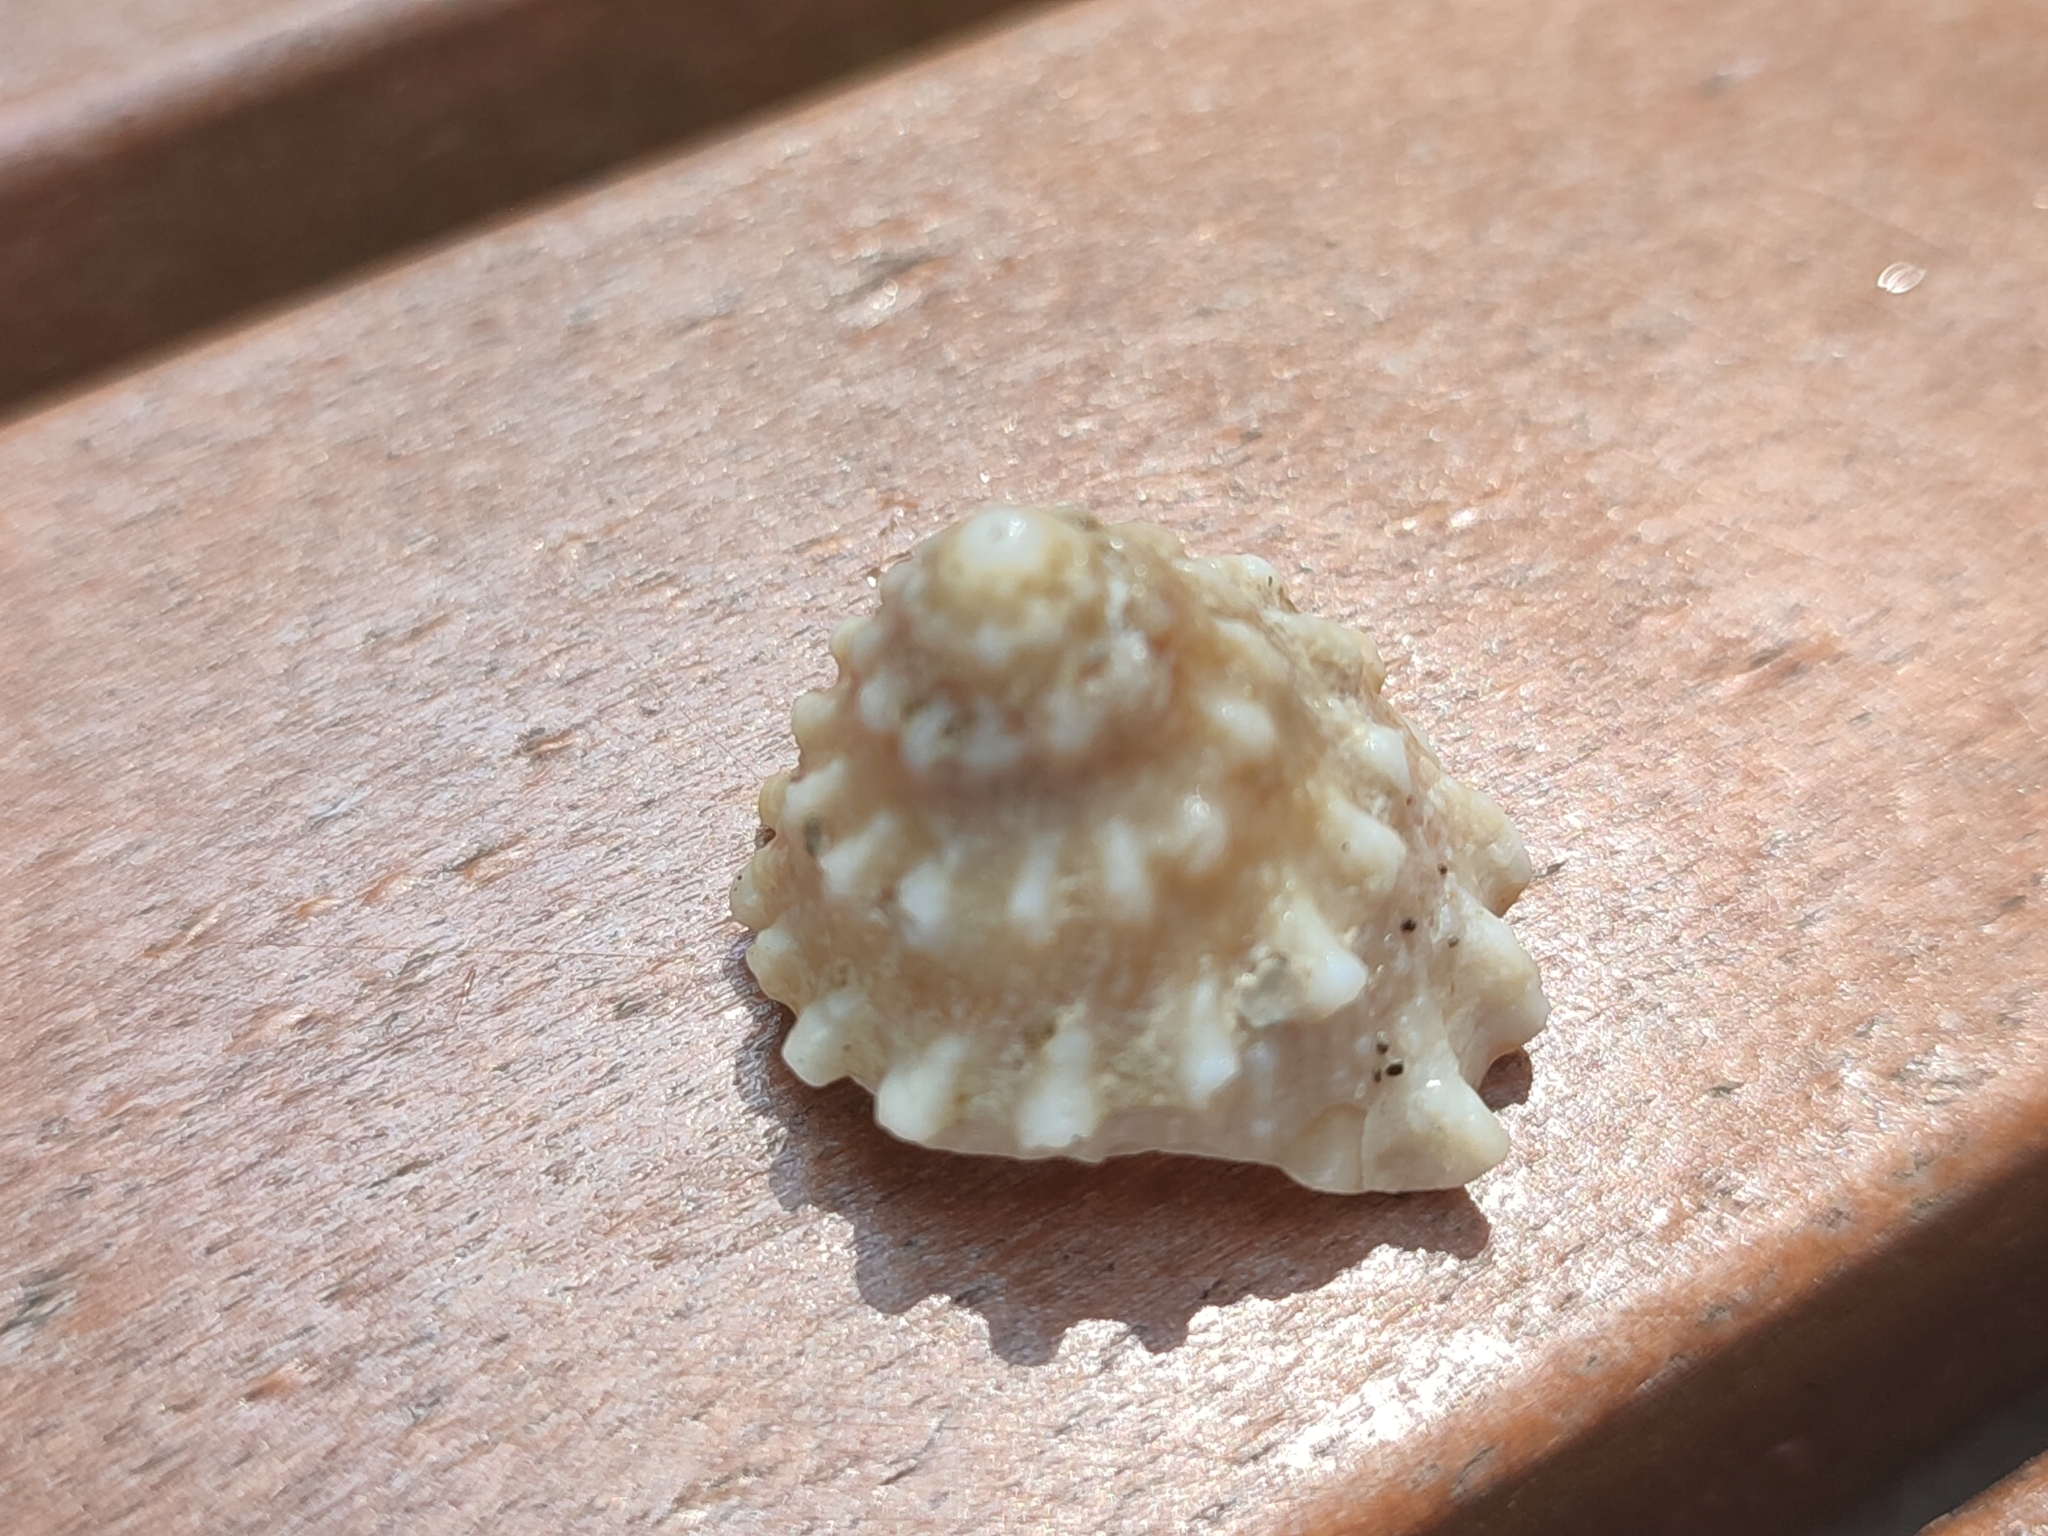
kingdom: Animalia
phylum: Mollusca
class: Gastropoda
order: Trochida
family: Turbinidae
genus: Astralium
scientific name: Astralium haematragum
